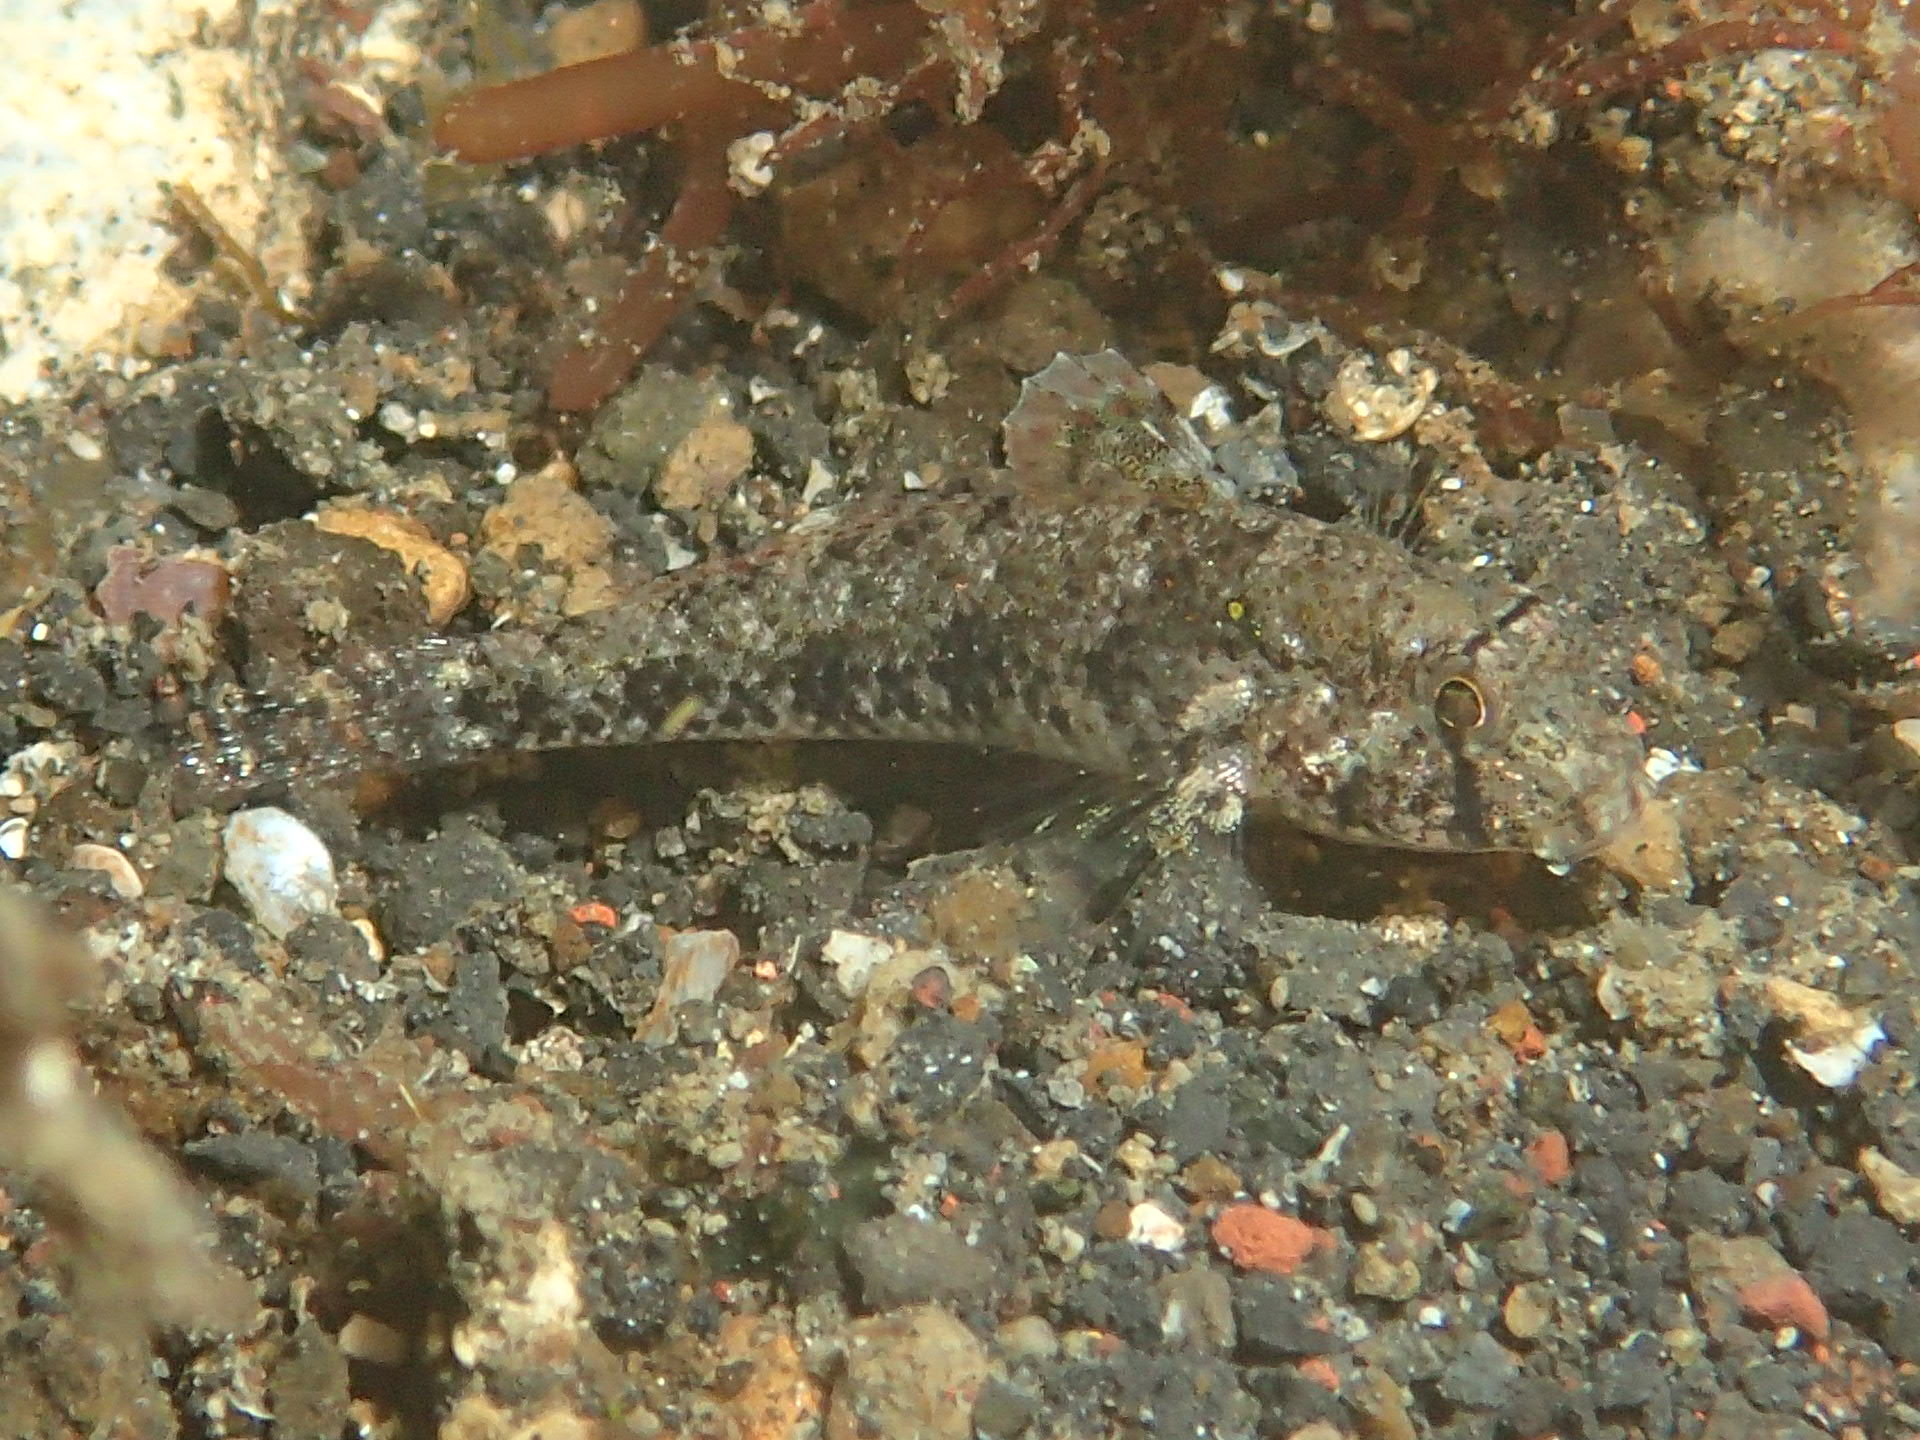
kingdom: Animalia
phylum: Chordata
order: Perciformes
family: Gobiidae
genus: Gnatholepis
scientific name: Gnatholepis yoshinoi
